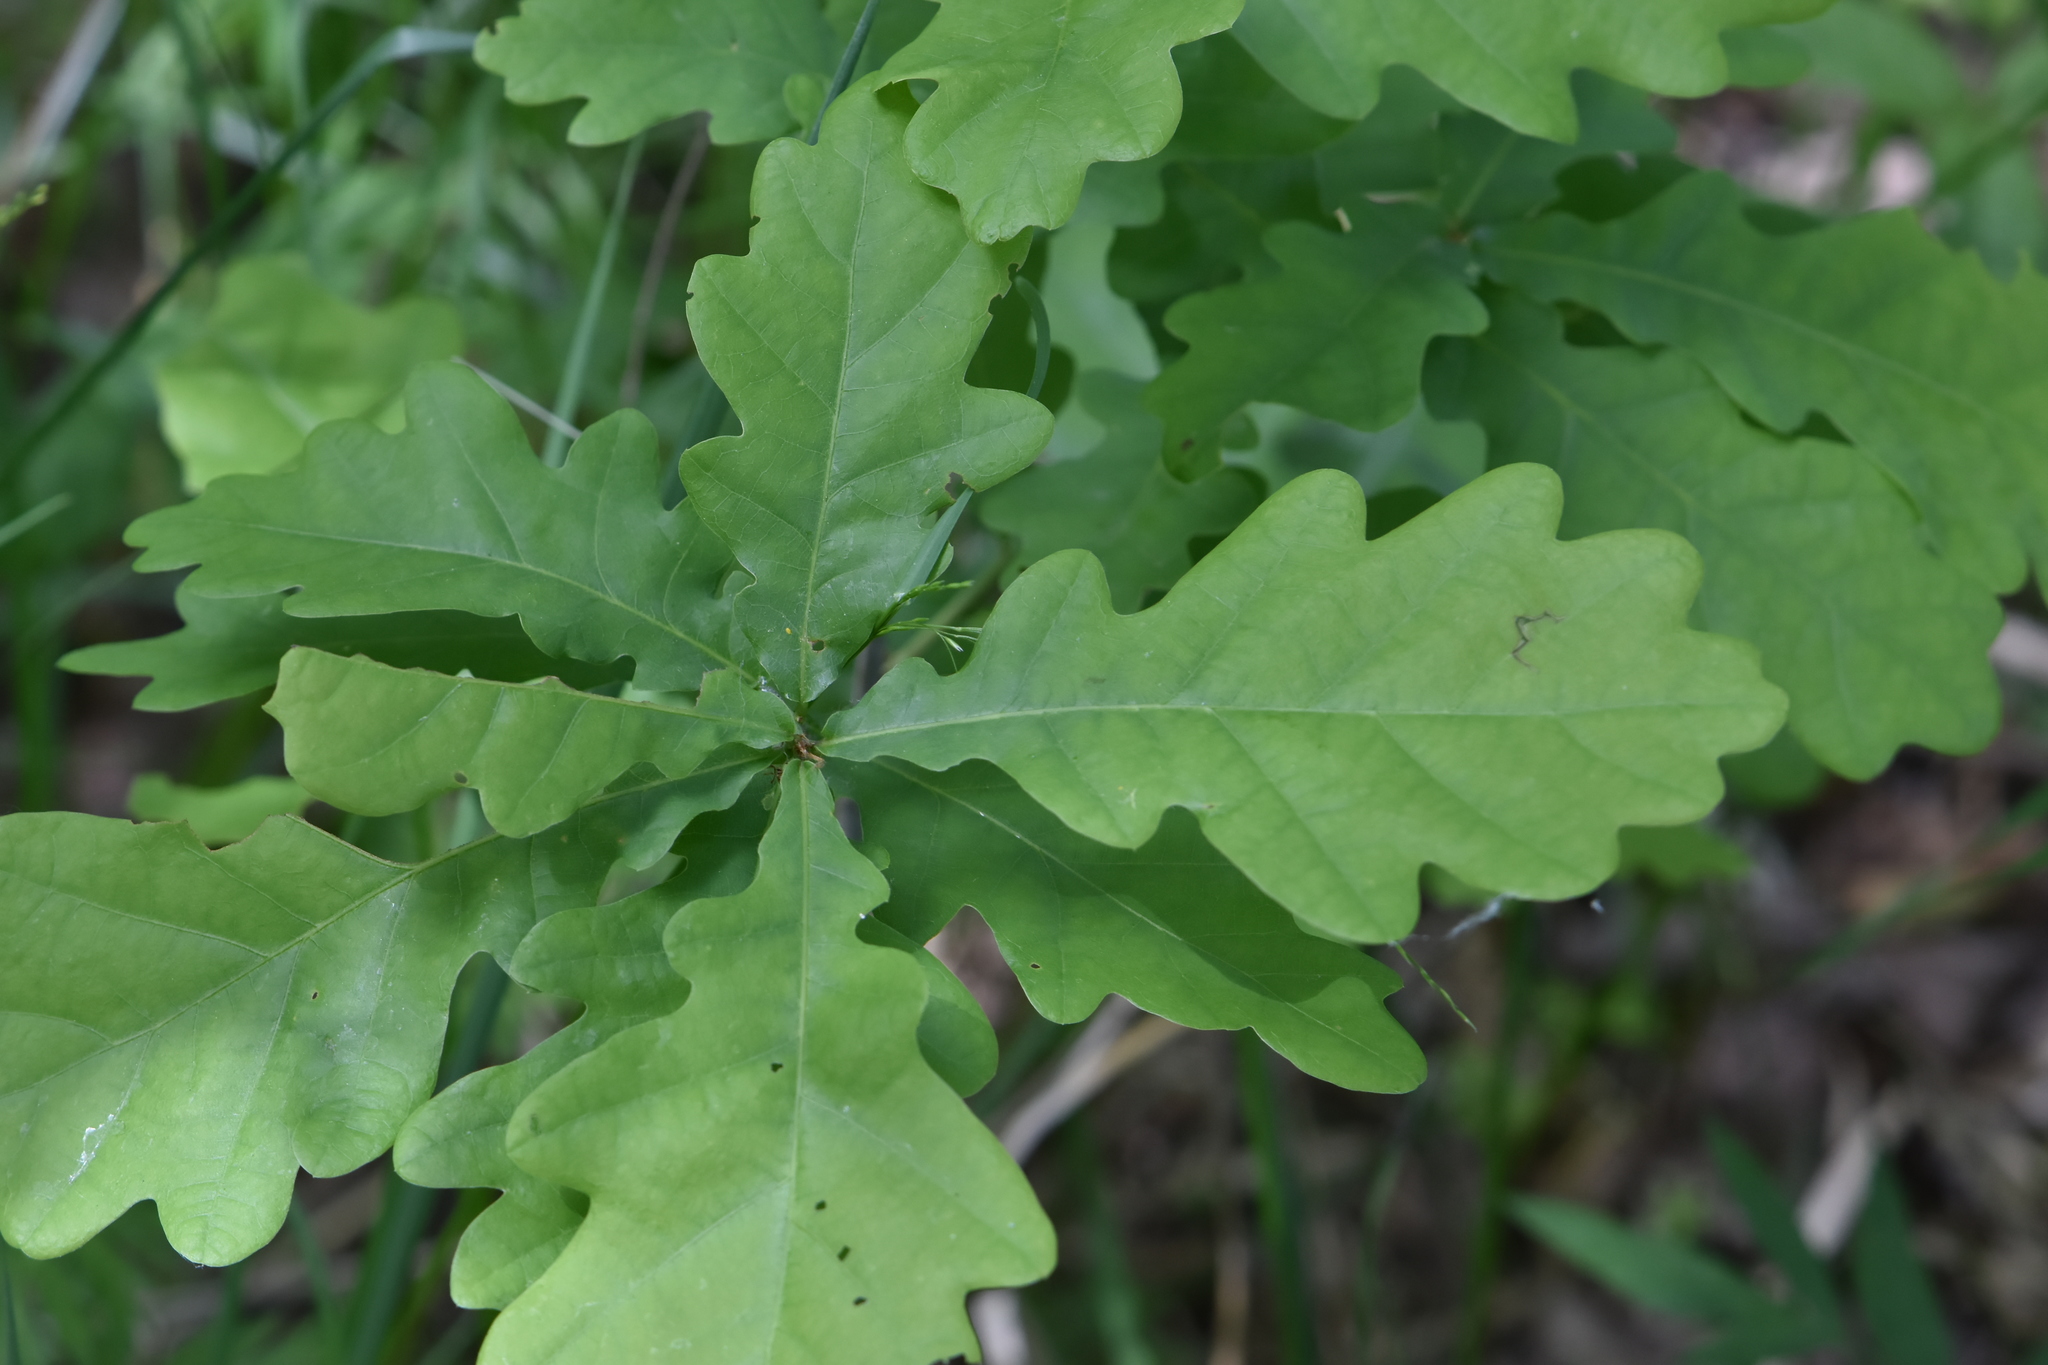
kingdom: Plantae
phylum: Tracheophyta
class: Magnoliopsida
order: Fagales
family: Fagaceae
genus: Quercus
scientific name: Quercus robur
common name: Pedunculate oak
